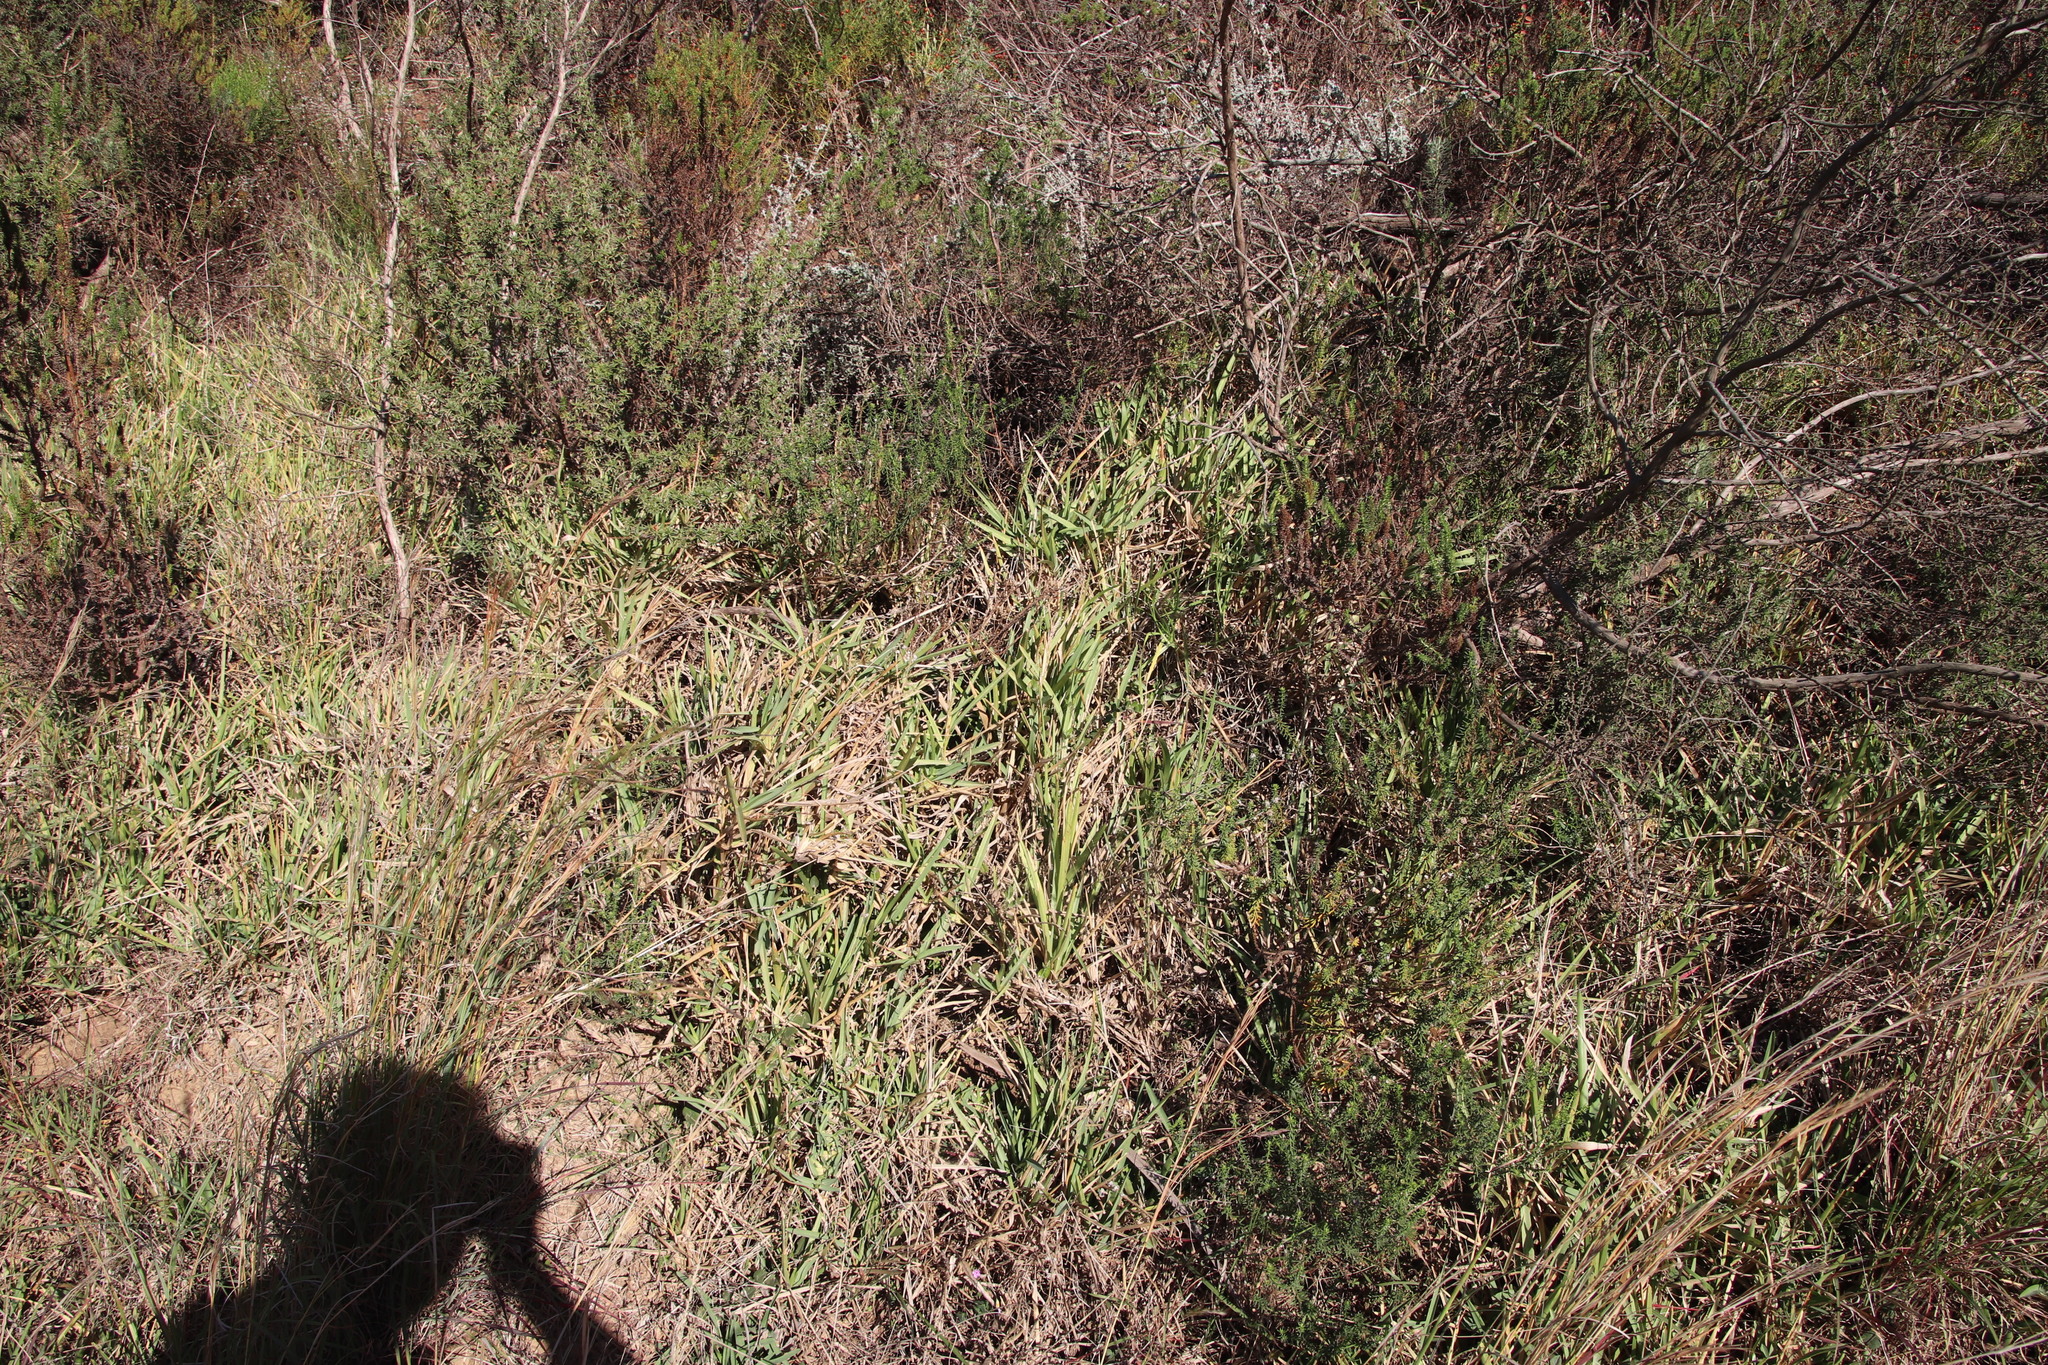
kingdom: Plantae
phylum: Tracheophyta
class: Liliopsida
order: Poales
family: Poaceae
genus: Stenotaphrum
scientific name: Stenotaphrum secundatum
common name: St. augustine grass
